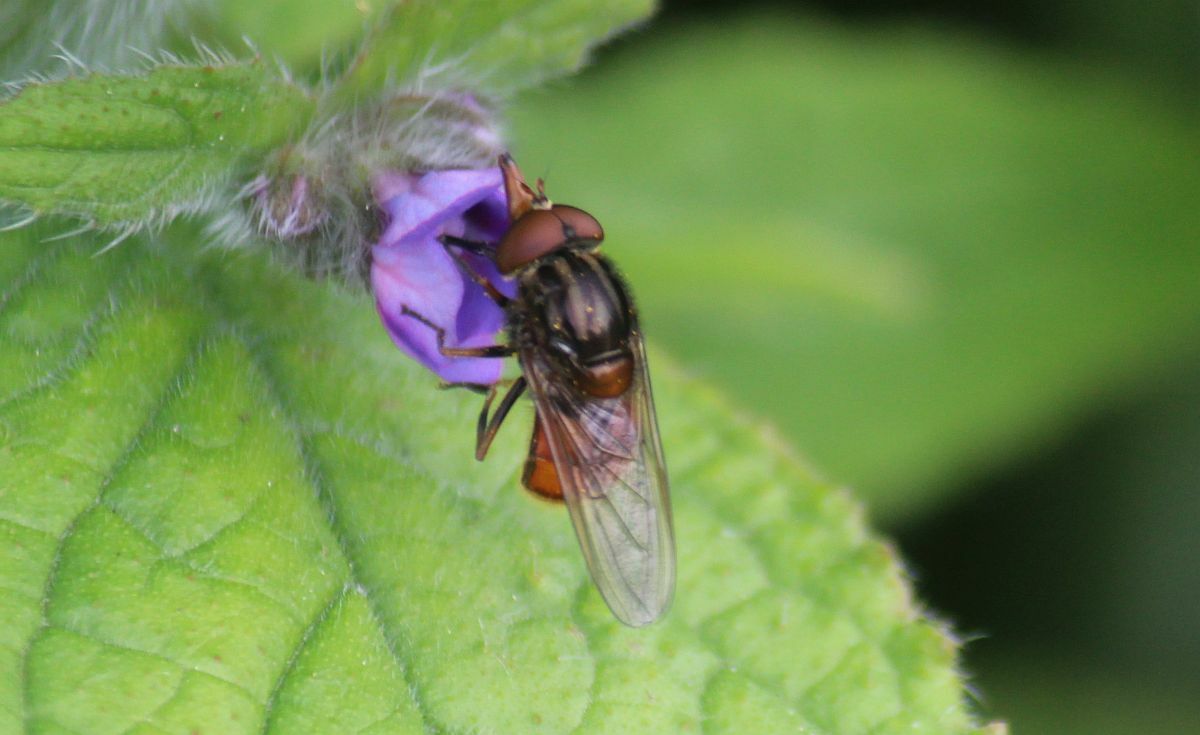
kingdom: Animalia
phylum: Arthropoda
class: Insecta
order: Diptera
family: Syrphidae
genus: Rhingia
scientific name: Rhingia campestris
